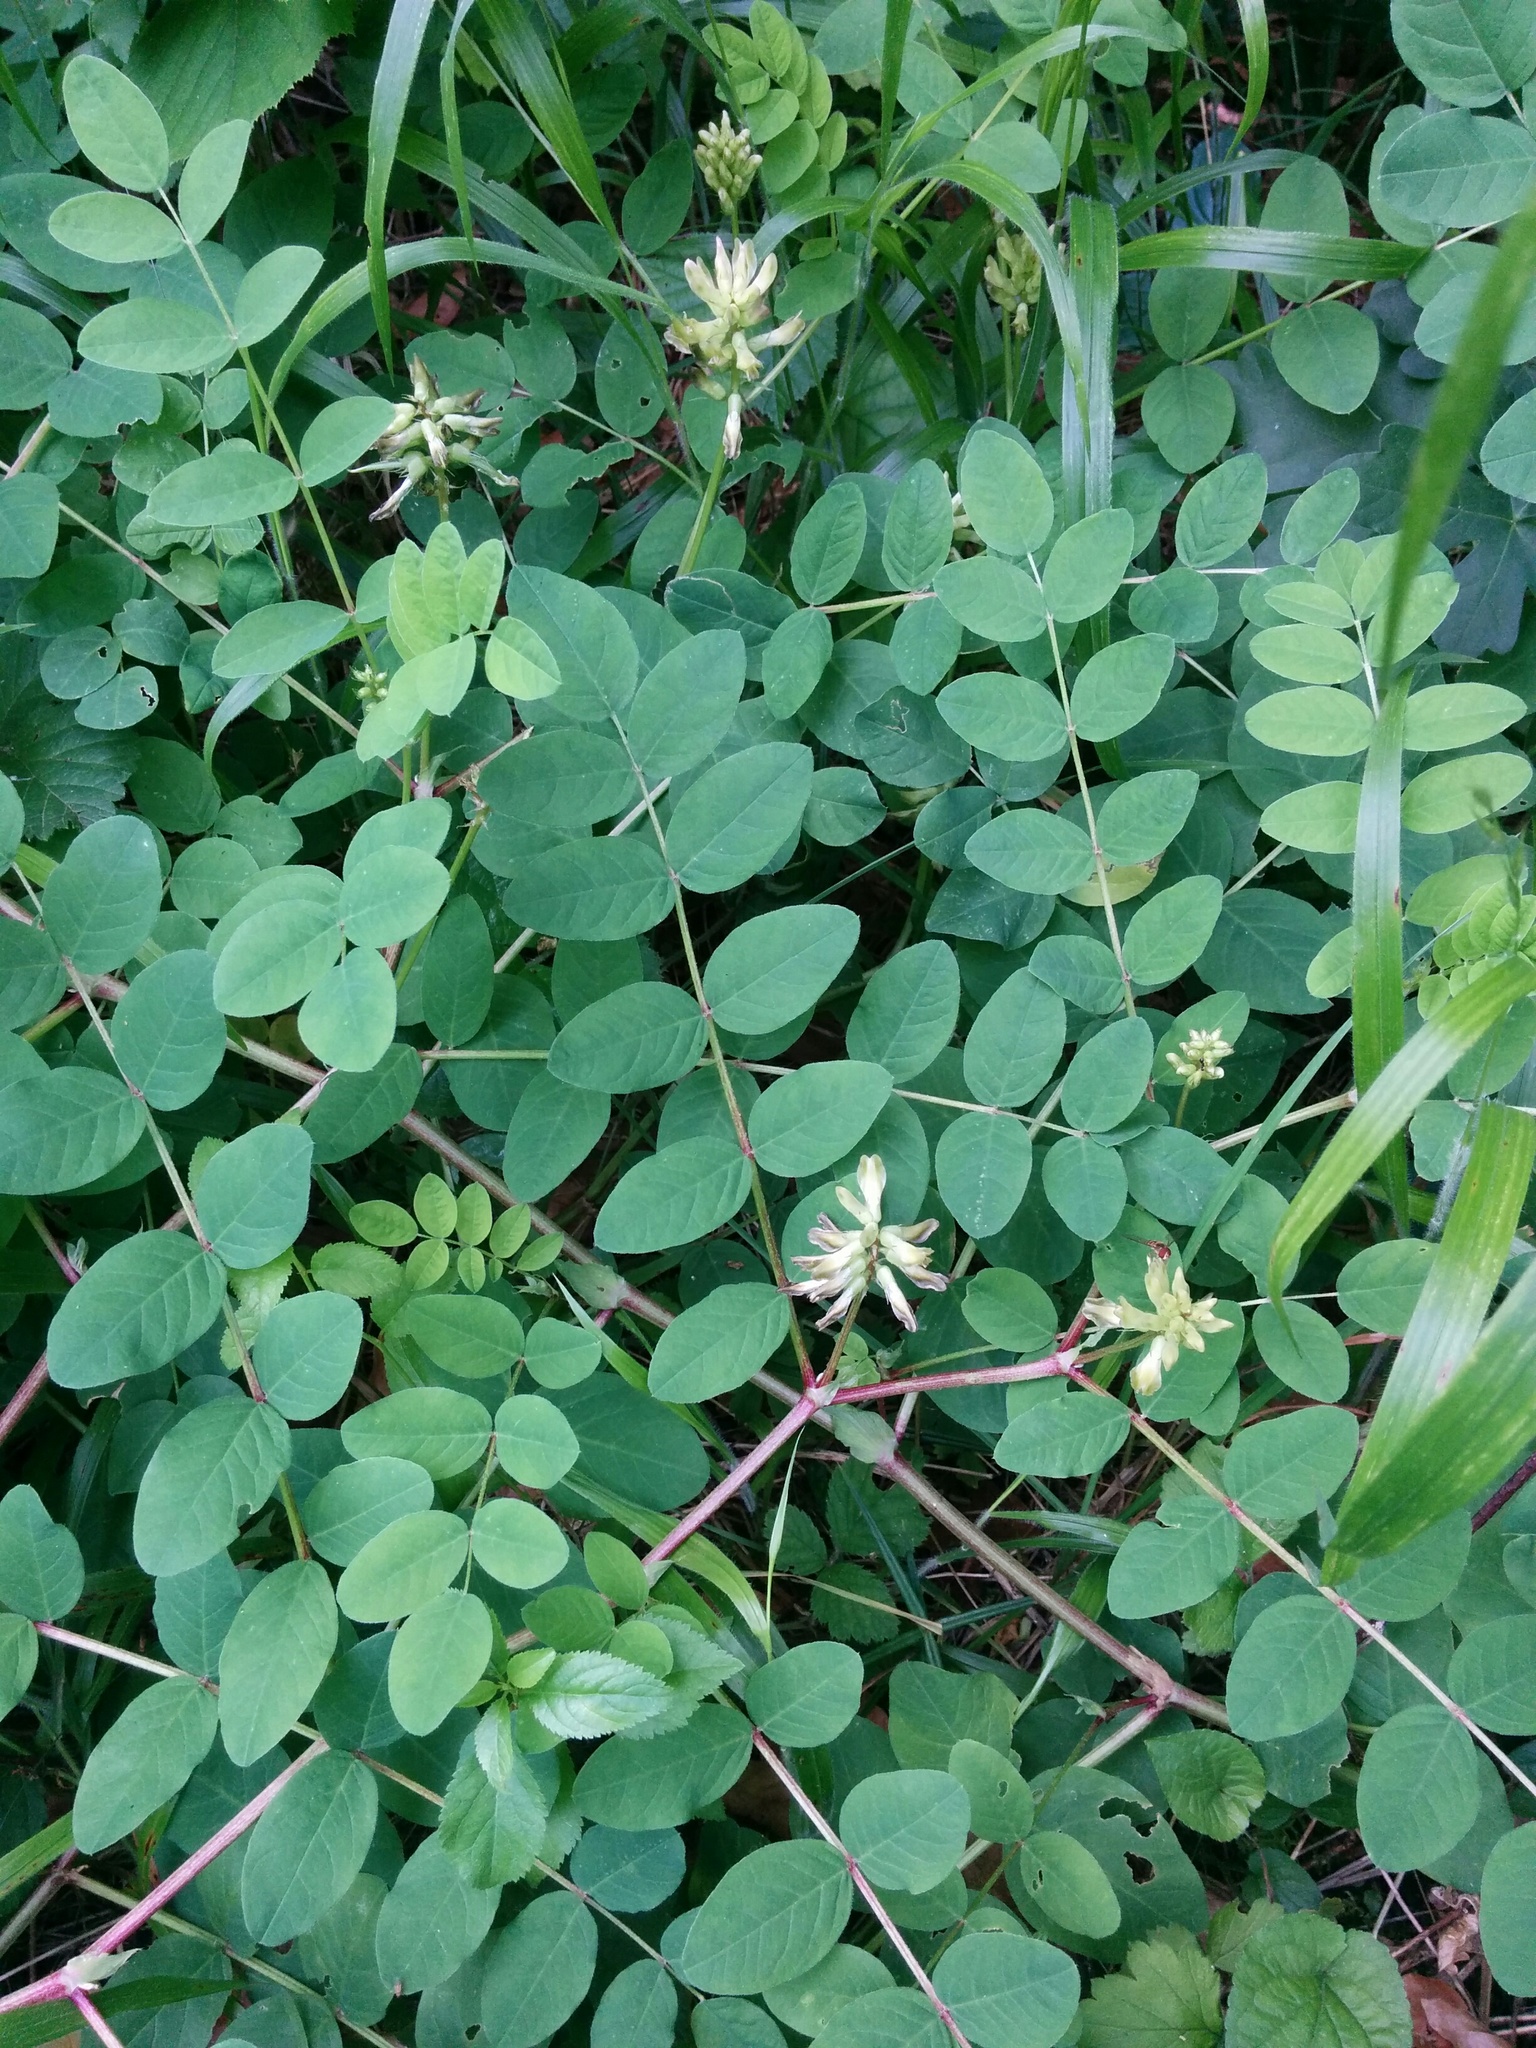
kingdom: Plantae
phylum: Tracheophyta
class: Magnoliopsida
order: Fabales
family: Fabaceae
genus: Astragalus
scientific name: Astragalus glycyphyllos
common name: Wild liquorice
